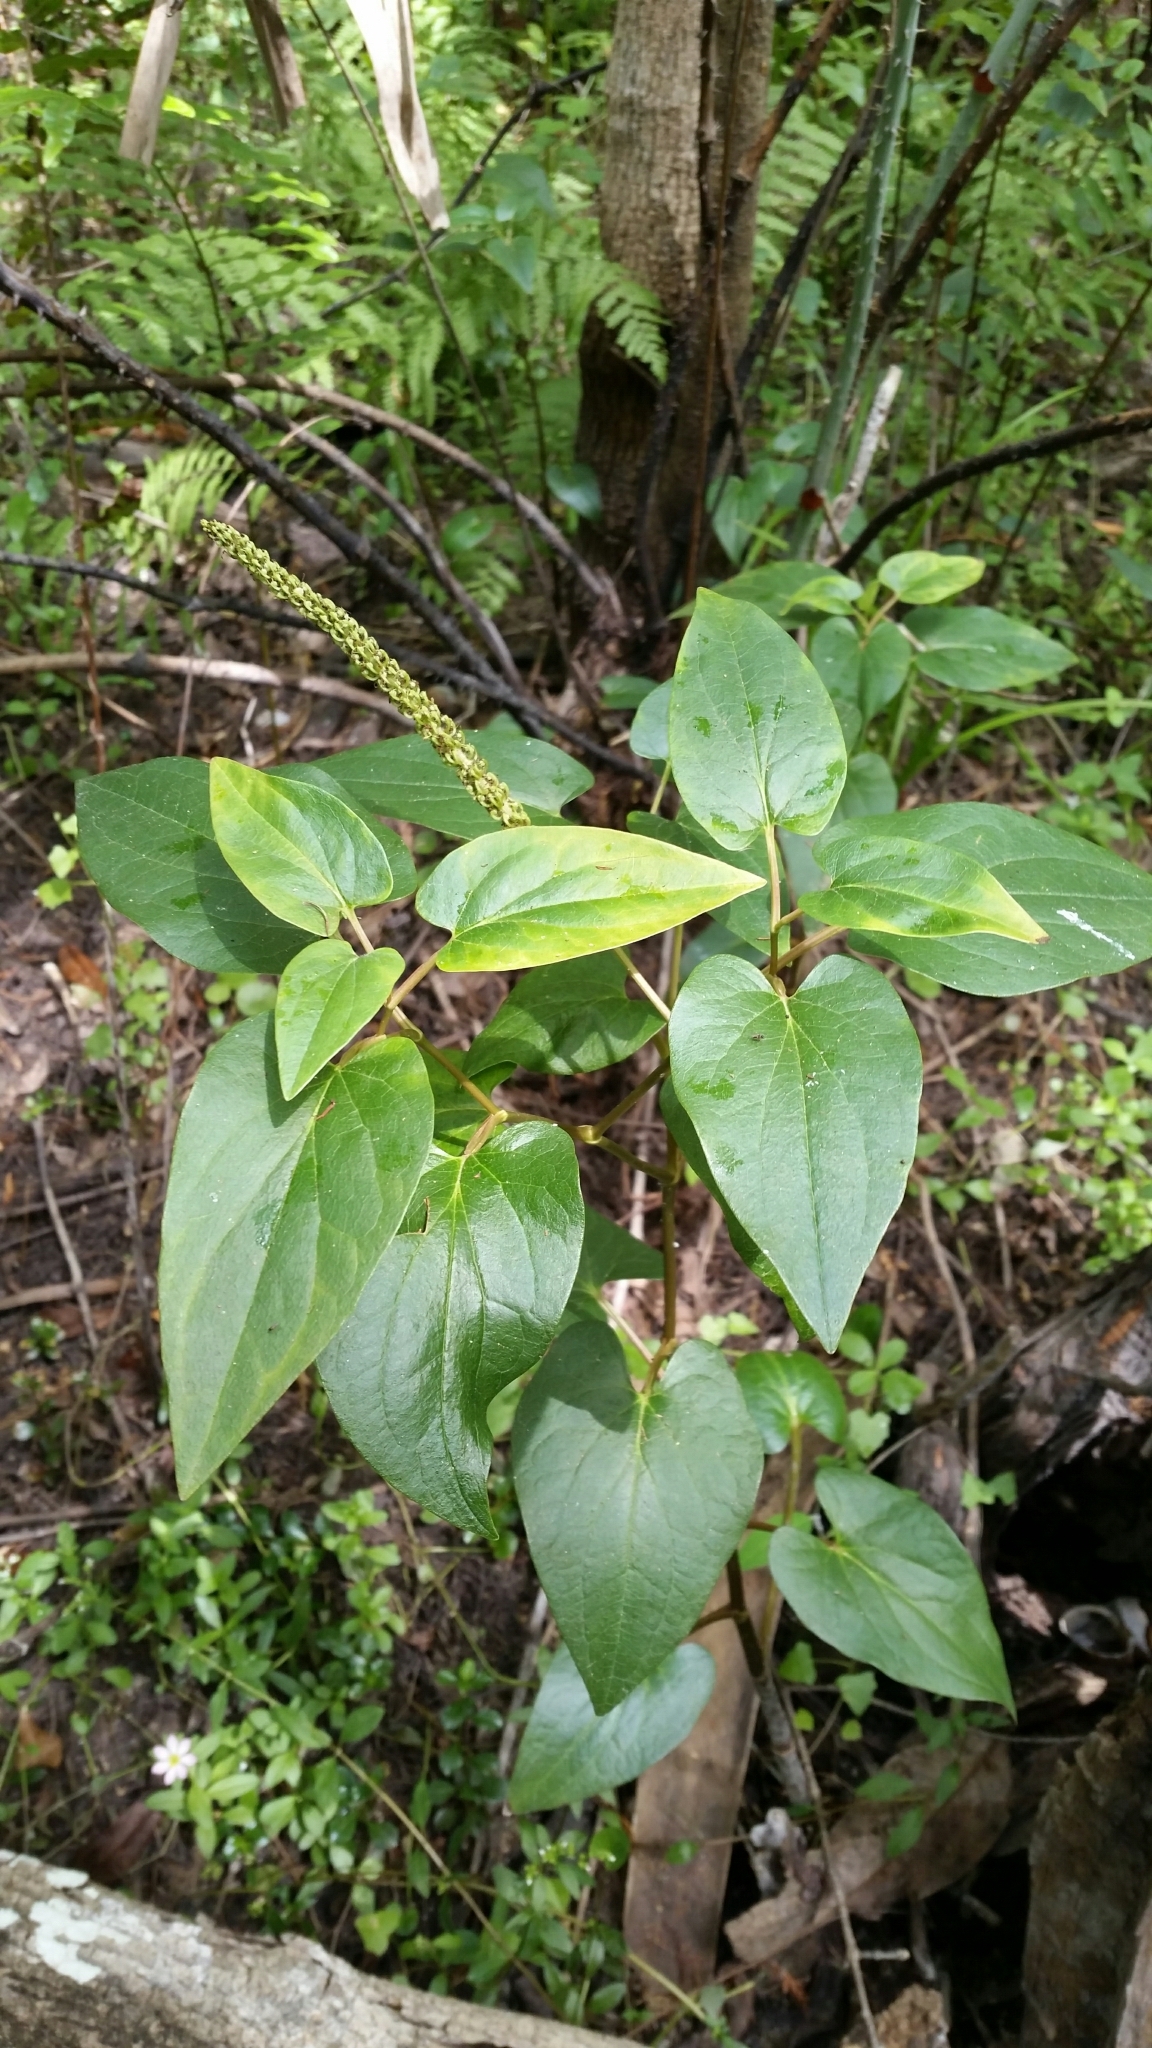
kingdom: Plantae
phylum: Tracheophyta
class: Magnoliopsida
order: Piperales
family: Saururaceae
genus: Saururus
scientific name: Saururus cernuus
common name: Lizard's-tail
